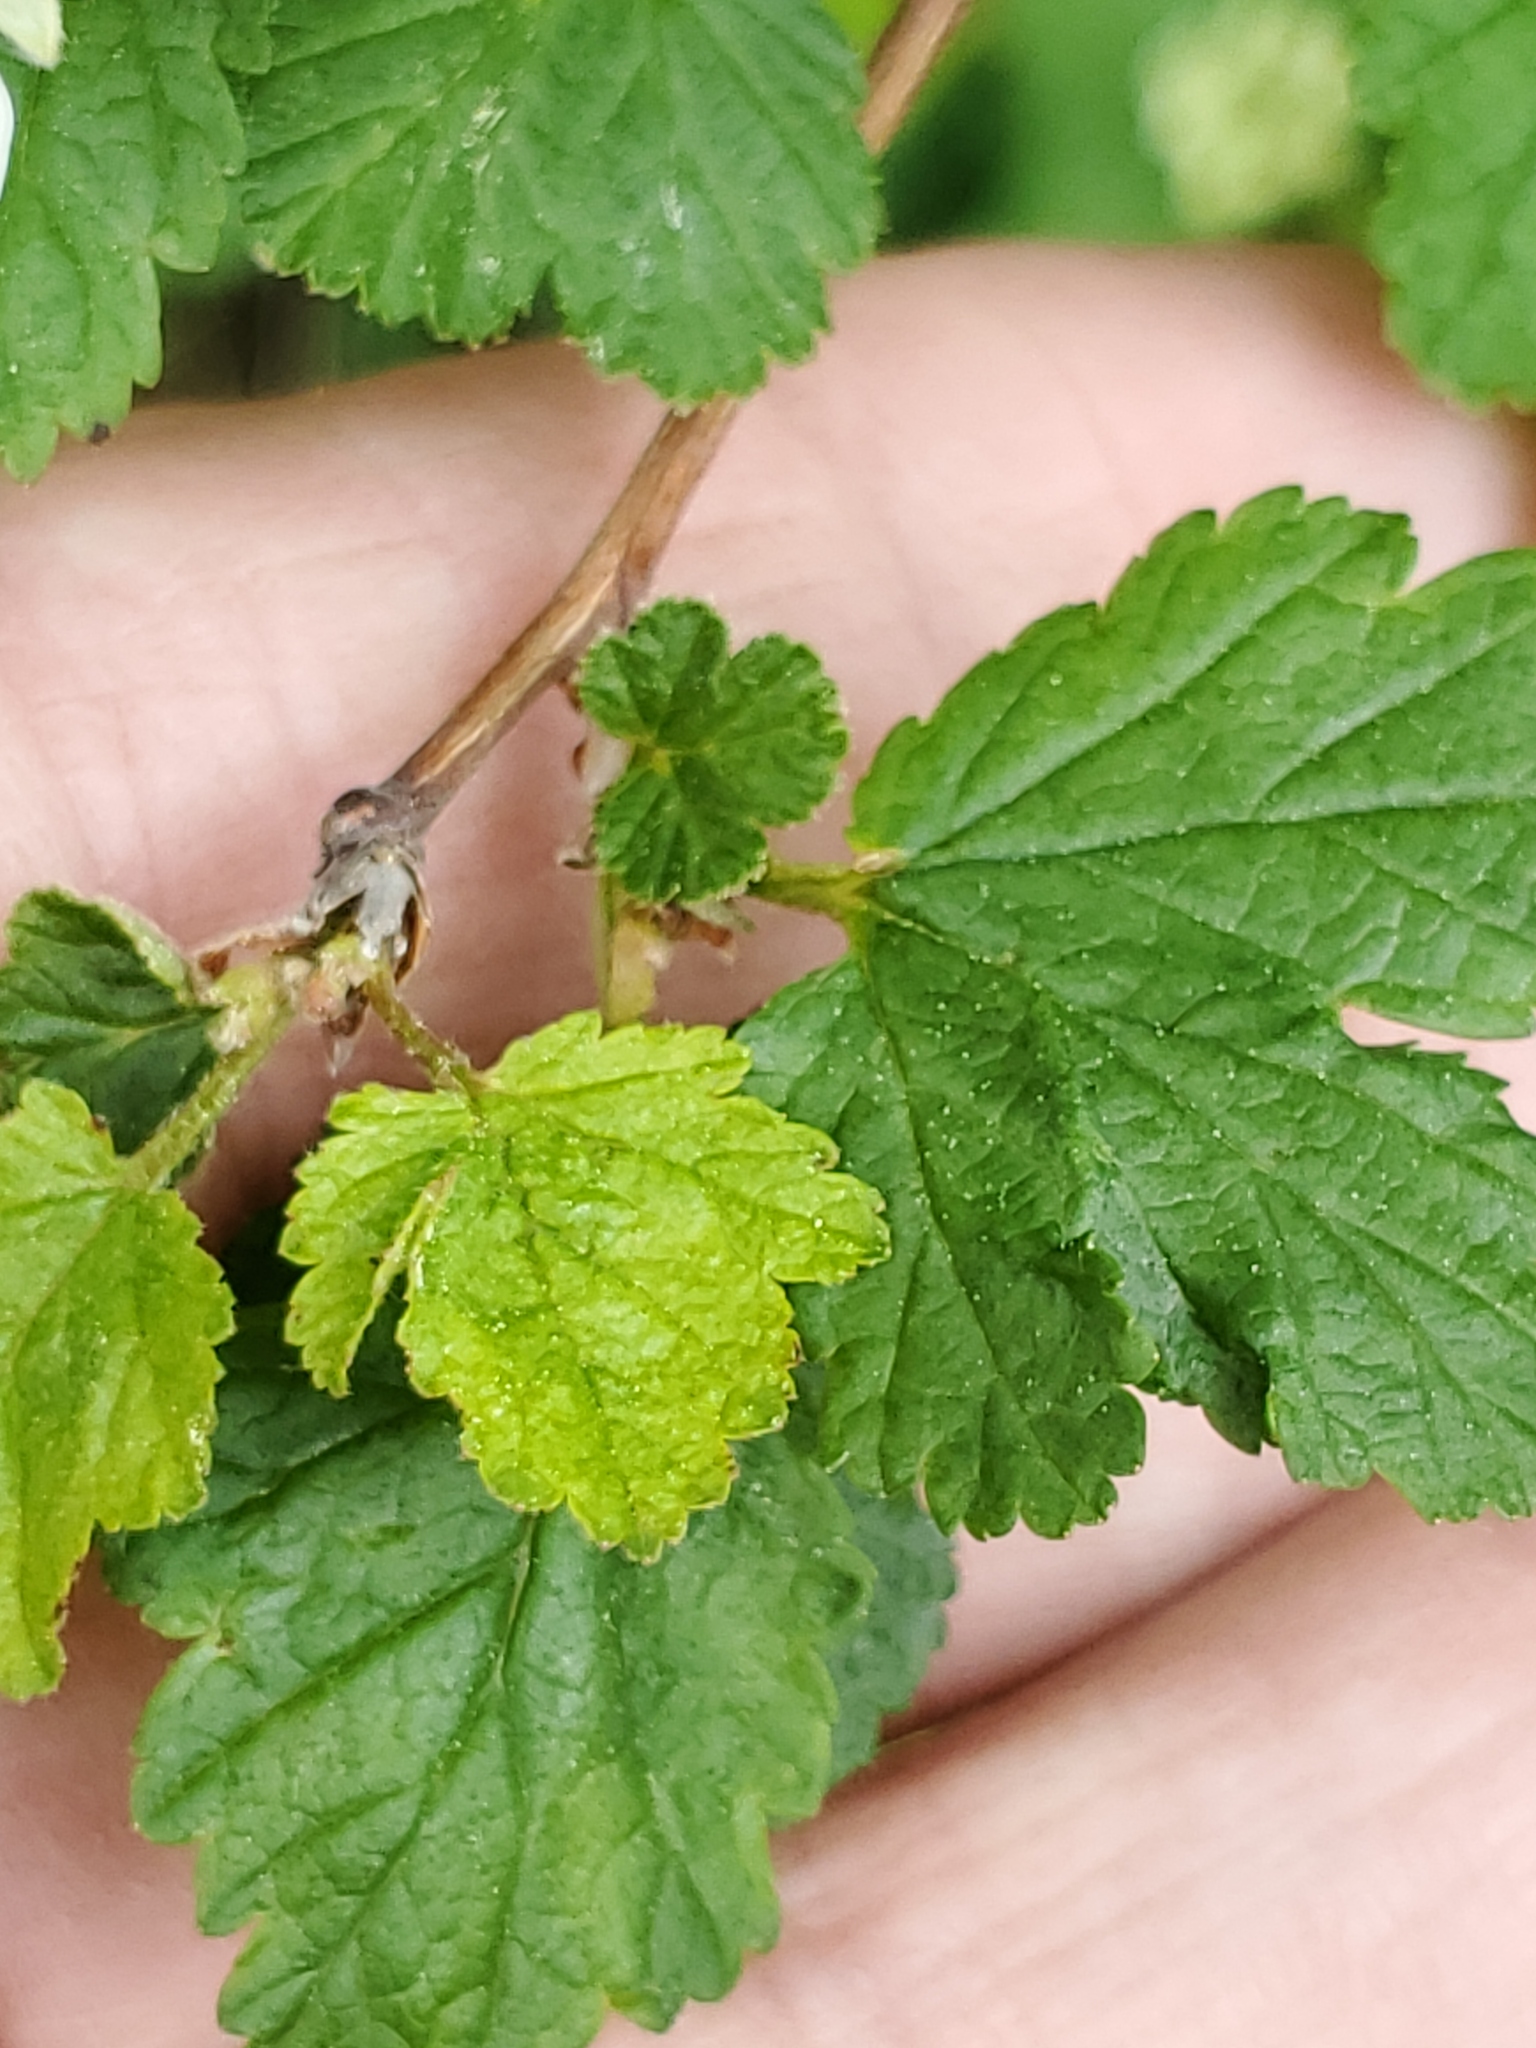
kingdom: Plantae
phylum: Tracheophyta
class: Magnoliopsida
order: Rosales
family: Rosaceae
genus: Physocarpus
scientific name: Physocarpus malvaceus
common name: Mallow ninebark
